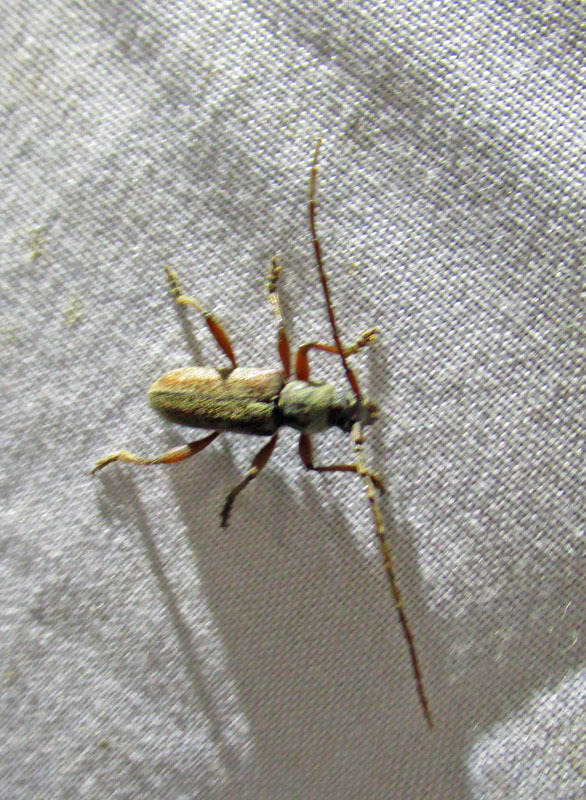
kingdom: Animalia
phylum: Arthropoda
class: Insecta
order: Coleoptera
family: Cerambycidae
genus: Anelaphus
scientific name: Anelaphus badius
